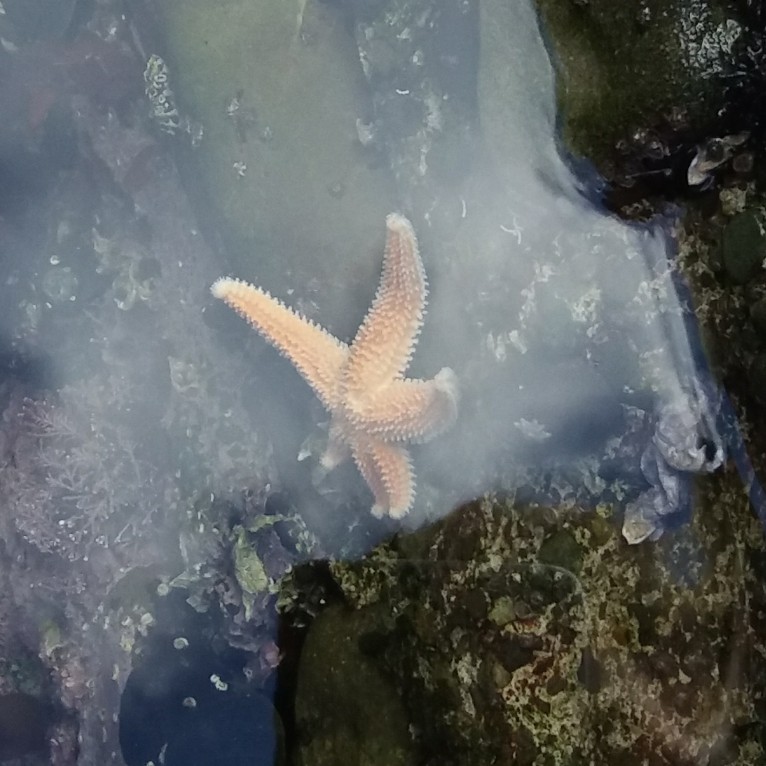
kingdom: Animalia
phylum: Echinodermata
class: Asteroidea
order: Forcipulatida
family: Stichasteridae
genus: Allostichaster
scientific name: Allostichaster insignis
